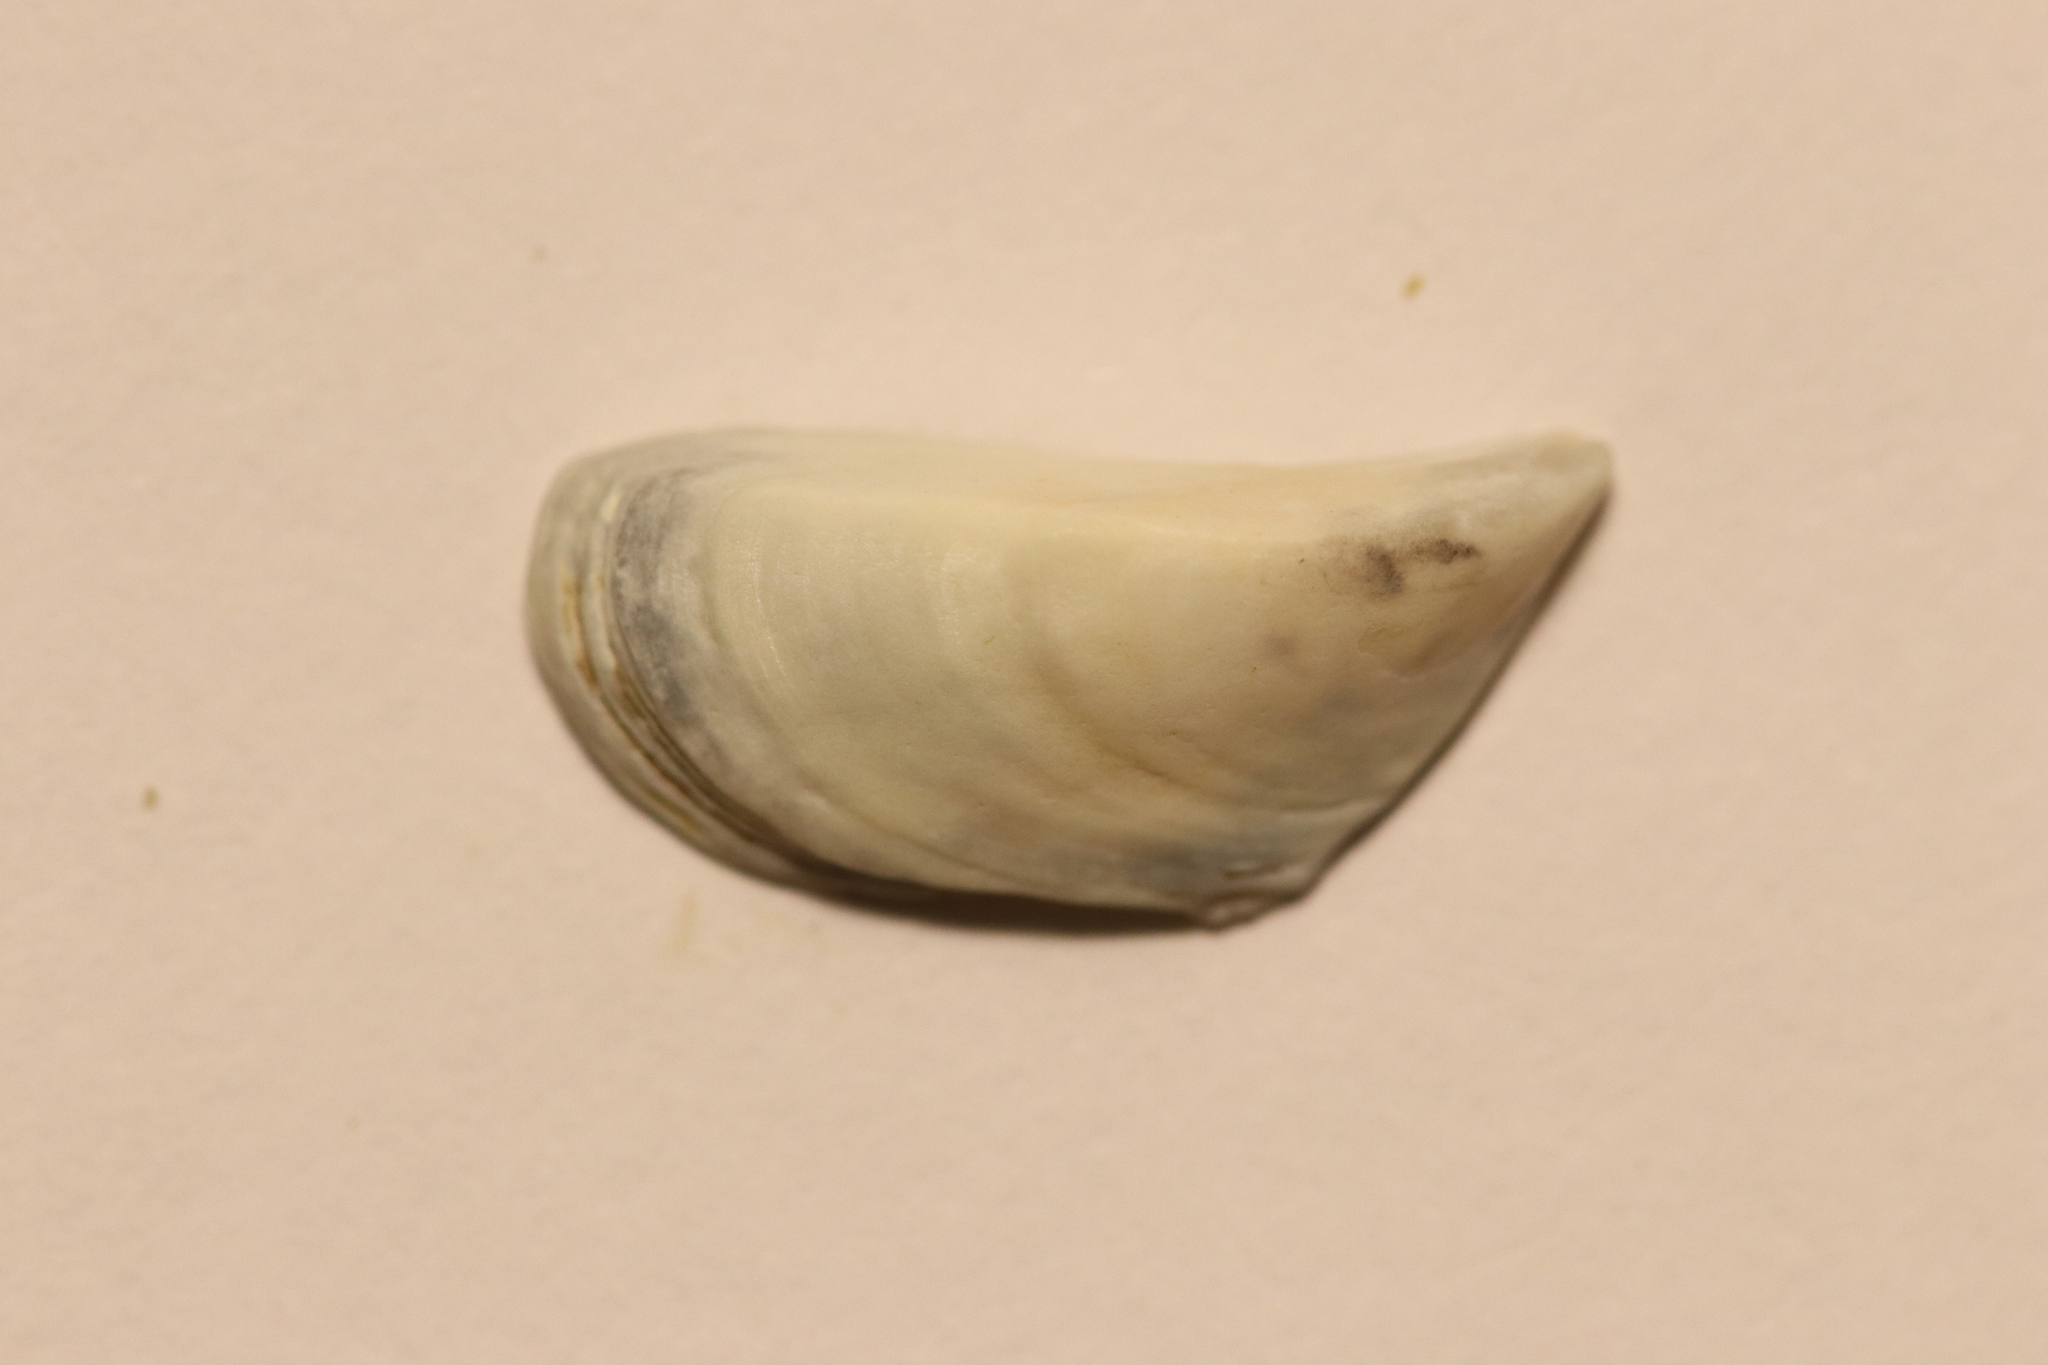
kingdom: Animalia
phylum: Mollusca
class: Bivalvia
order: Myida
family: Dreissenidae
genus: Dreissena
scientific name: Dreissena polymorpha
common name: Zebra mussel
